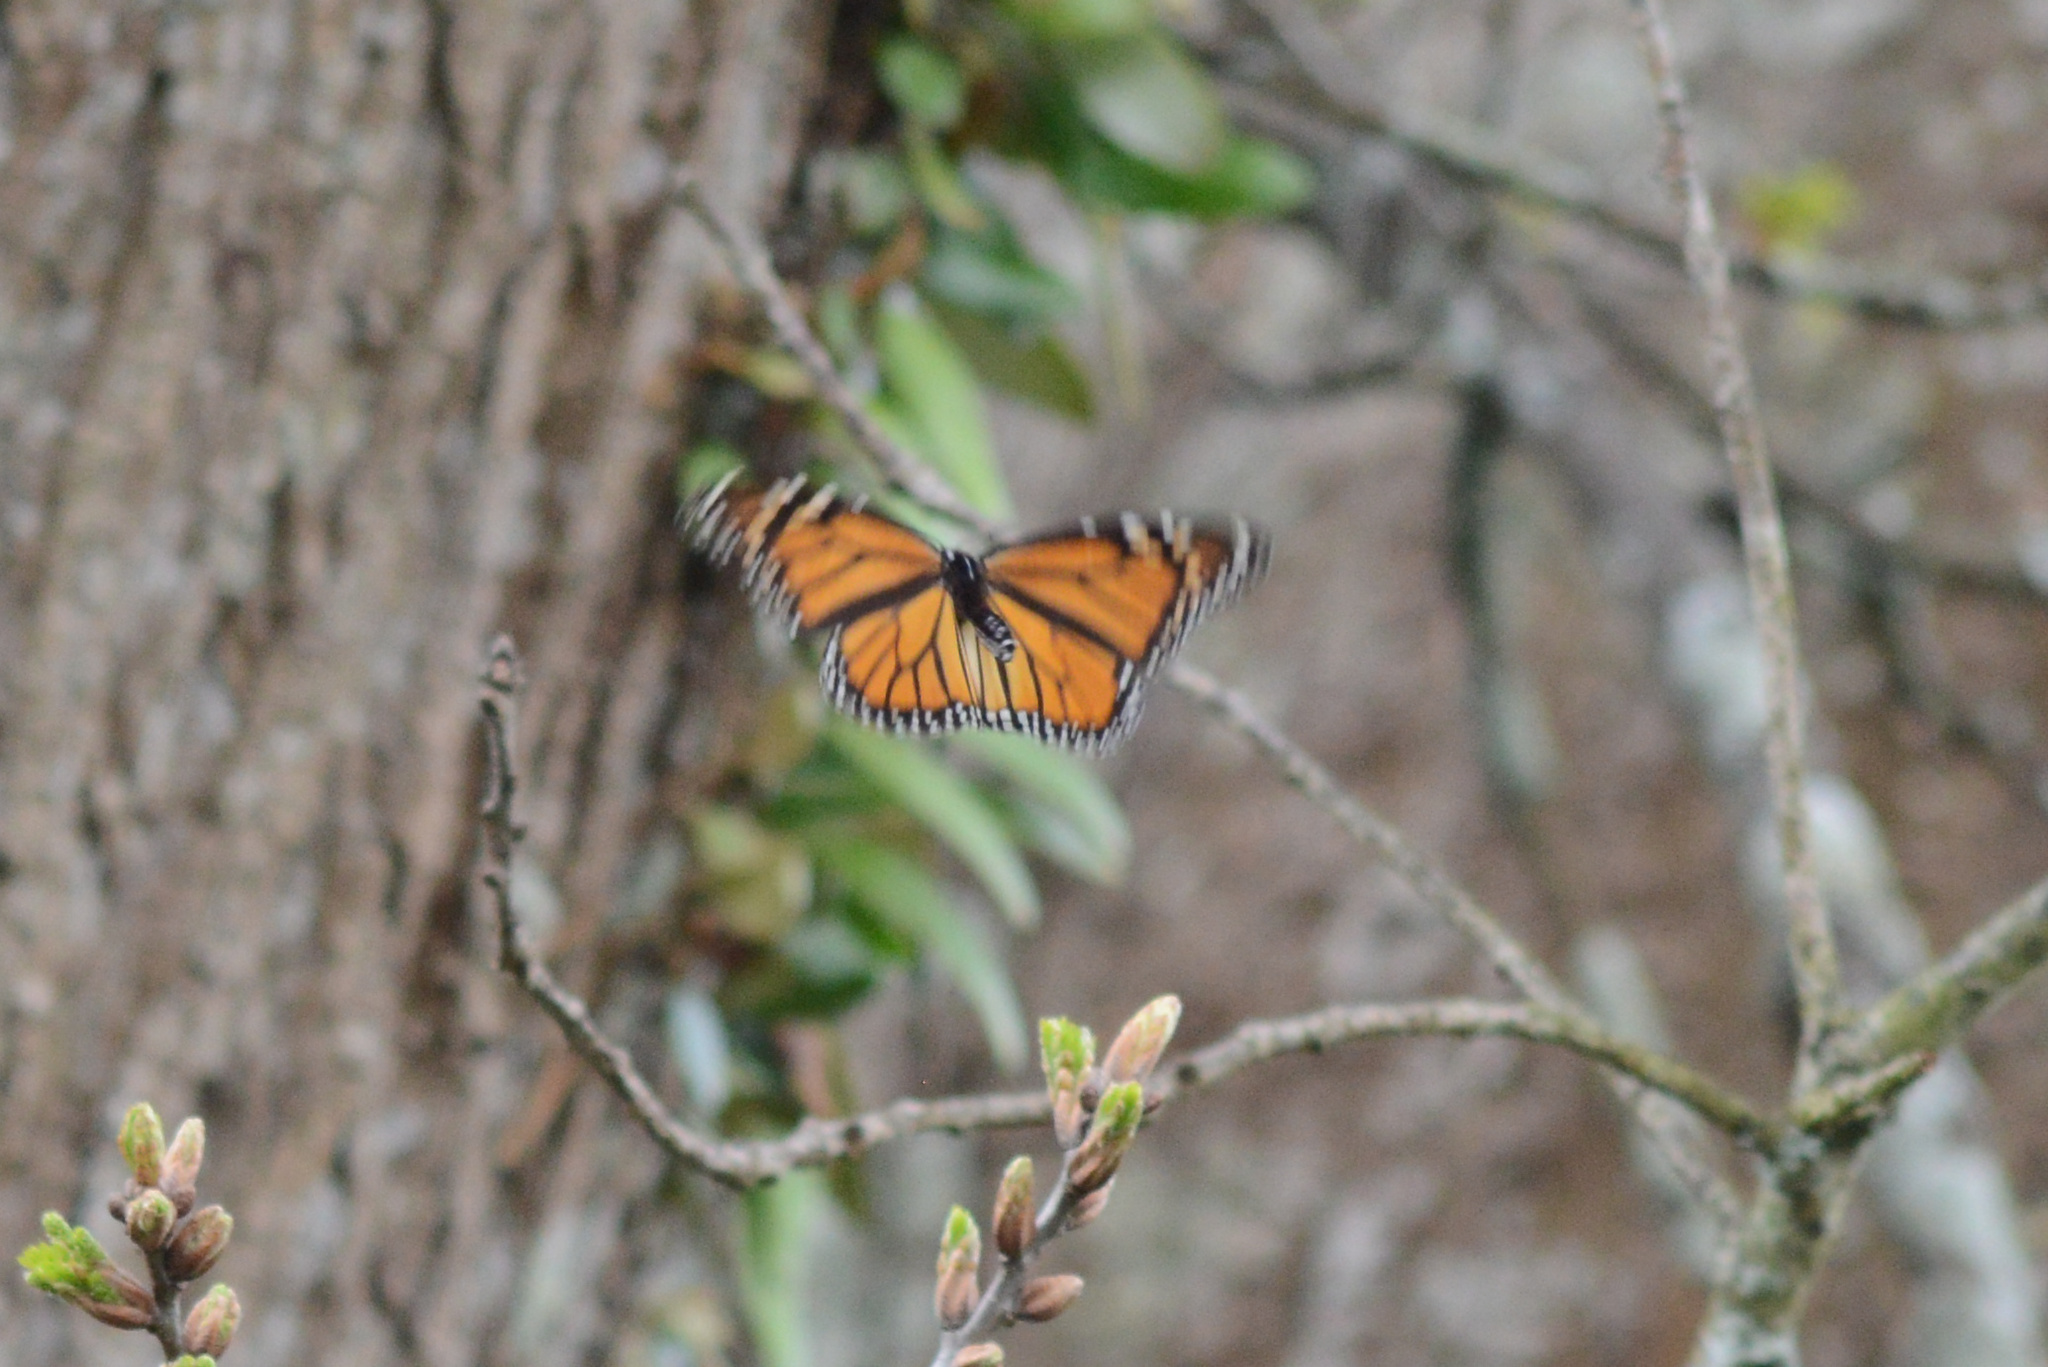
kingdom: Animalia
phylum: Arthropoda
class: Insecta
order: Lepidoptera
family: Nymphalidae
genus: Danaus
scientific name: Danaus plexippus
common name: Monarch
